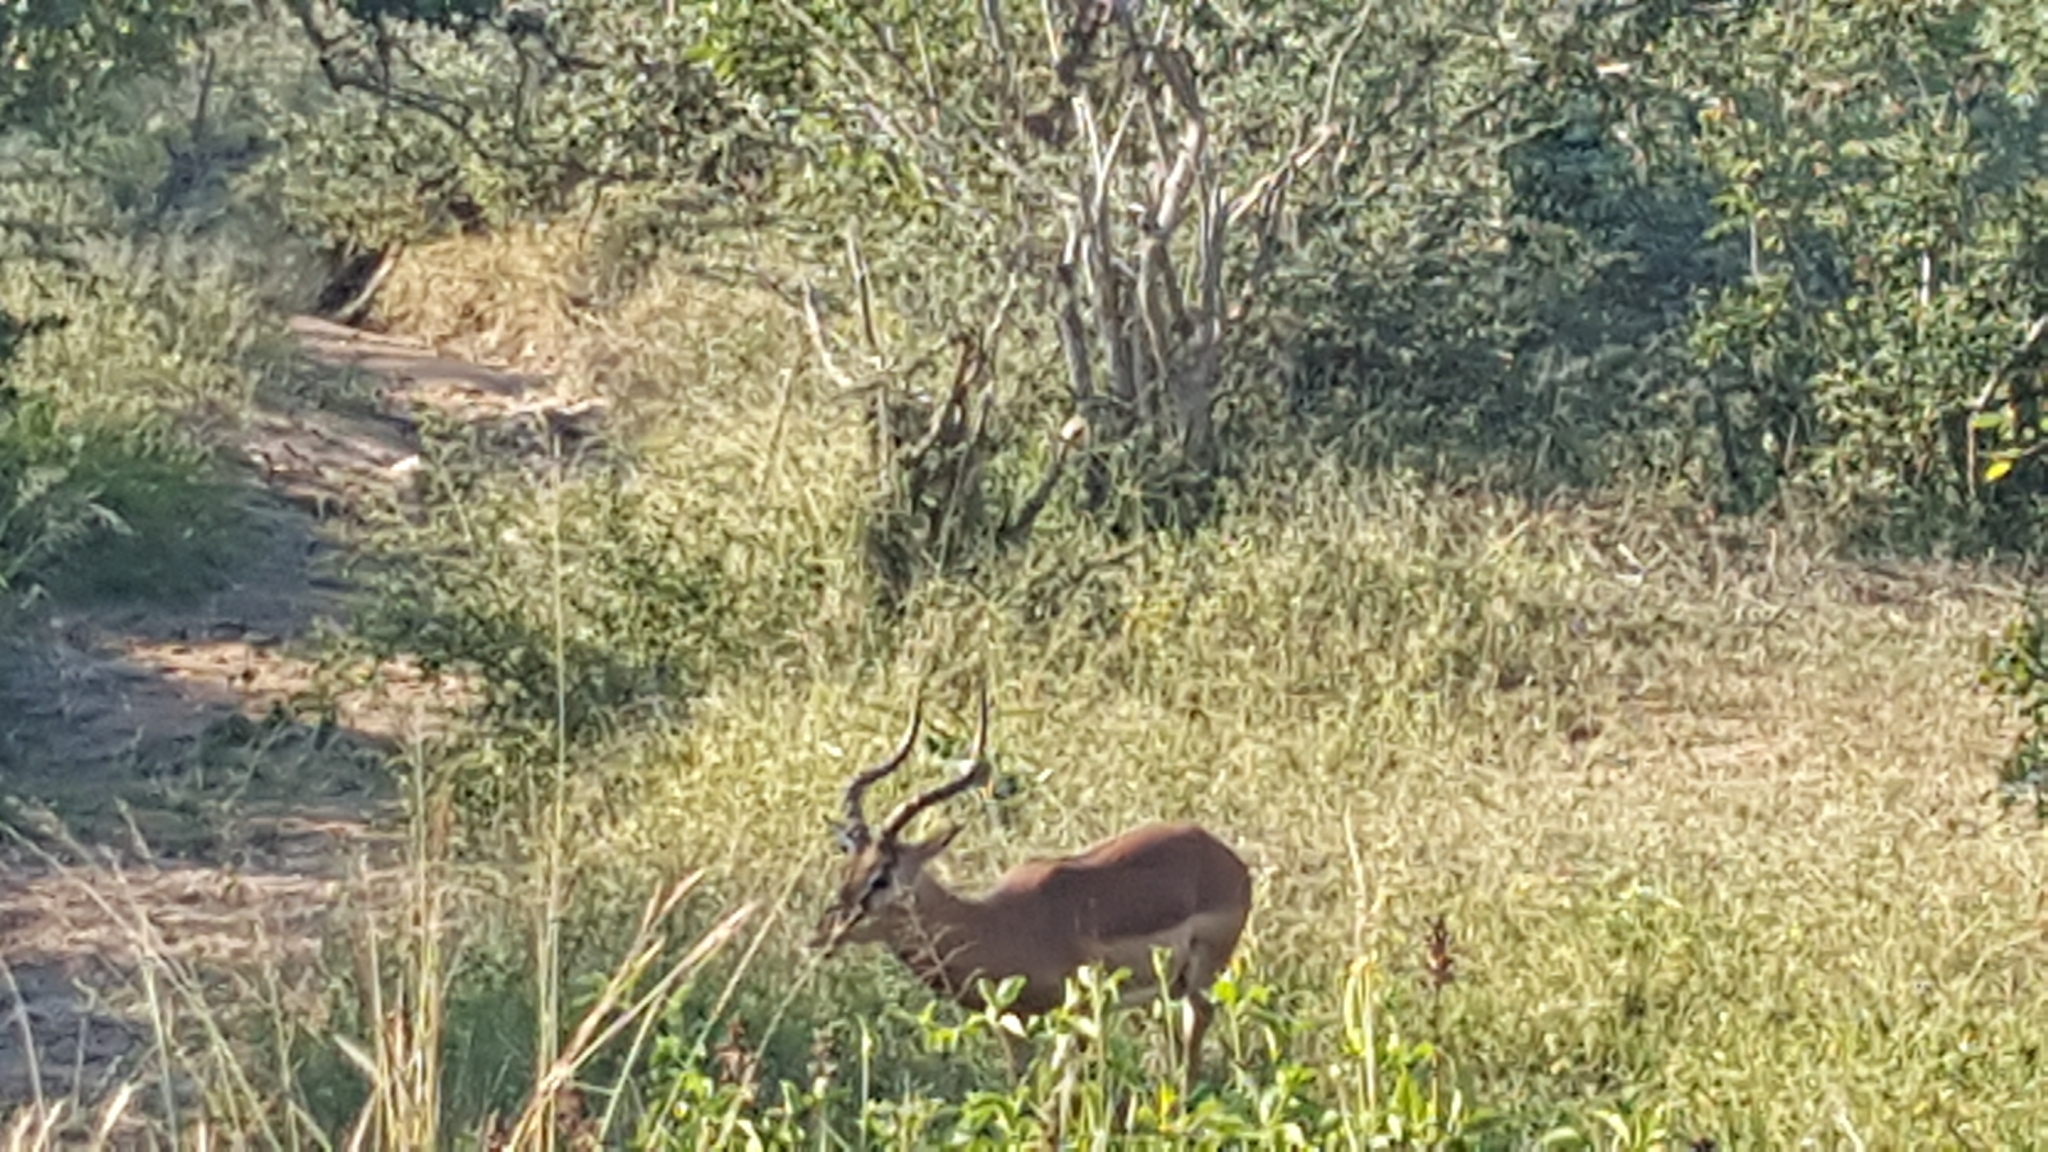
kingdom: Animalia
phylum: Chordata
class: Mammalia
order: Artiodactyla
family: Bovidae
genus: Aepyceros
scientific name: Aepyceros melampus
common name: Impala
